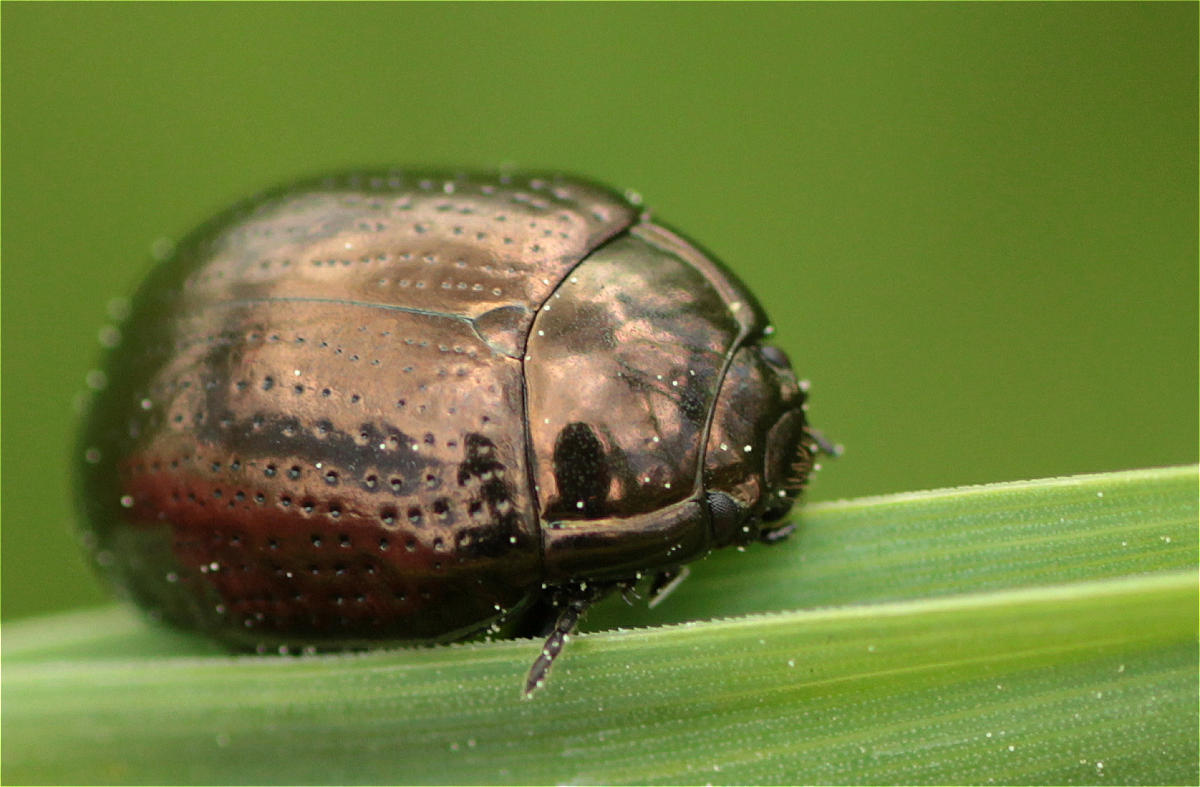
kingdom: Animalia
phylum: Arthropoda
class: Insecta
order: Coleoptera
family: Chrysomelidae
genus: Chrysolina
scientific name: Chrysolina oricalcia
